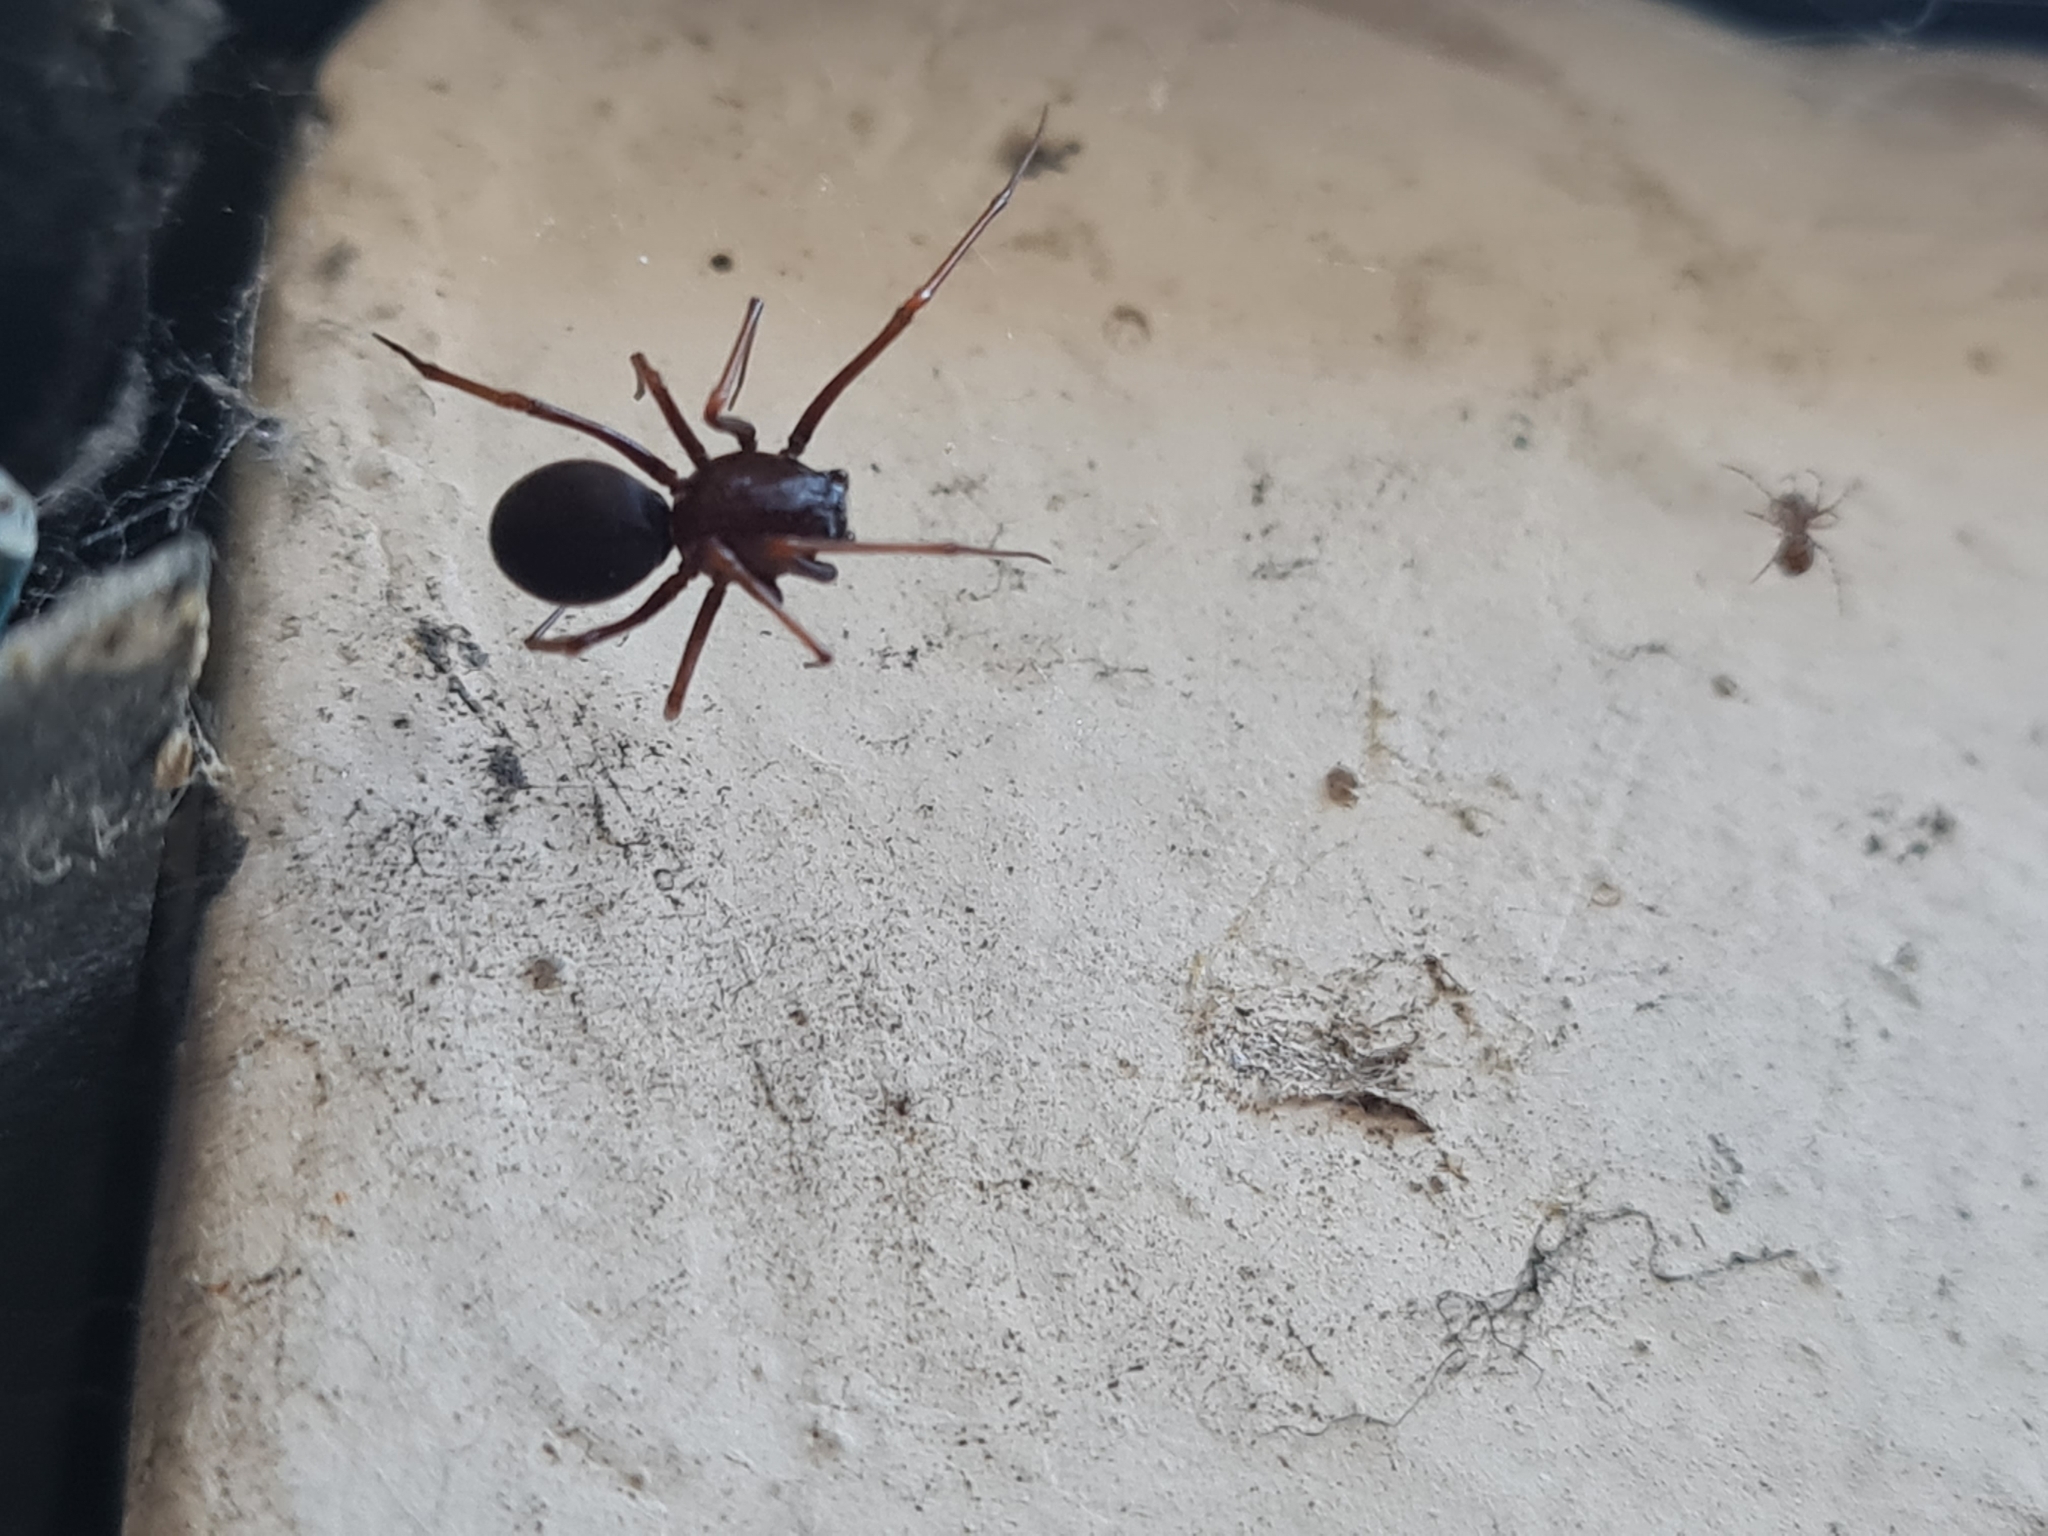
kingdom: Animalia
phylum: Arthropoda
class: Arachnida
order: Araneae
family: Scytodidae
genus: Scytodes
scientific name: Scytodes fusca
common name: Spitting spiders
